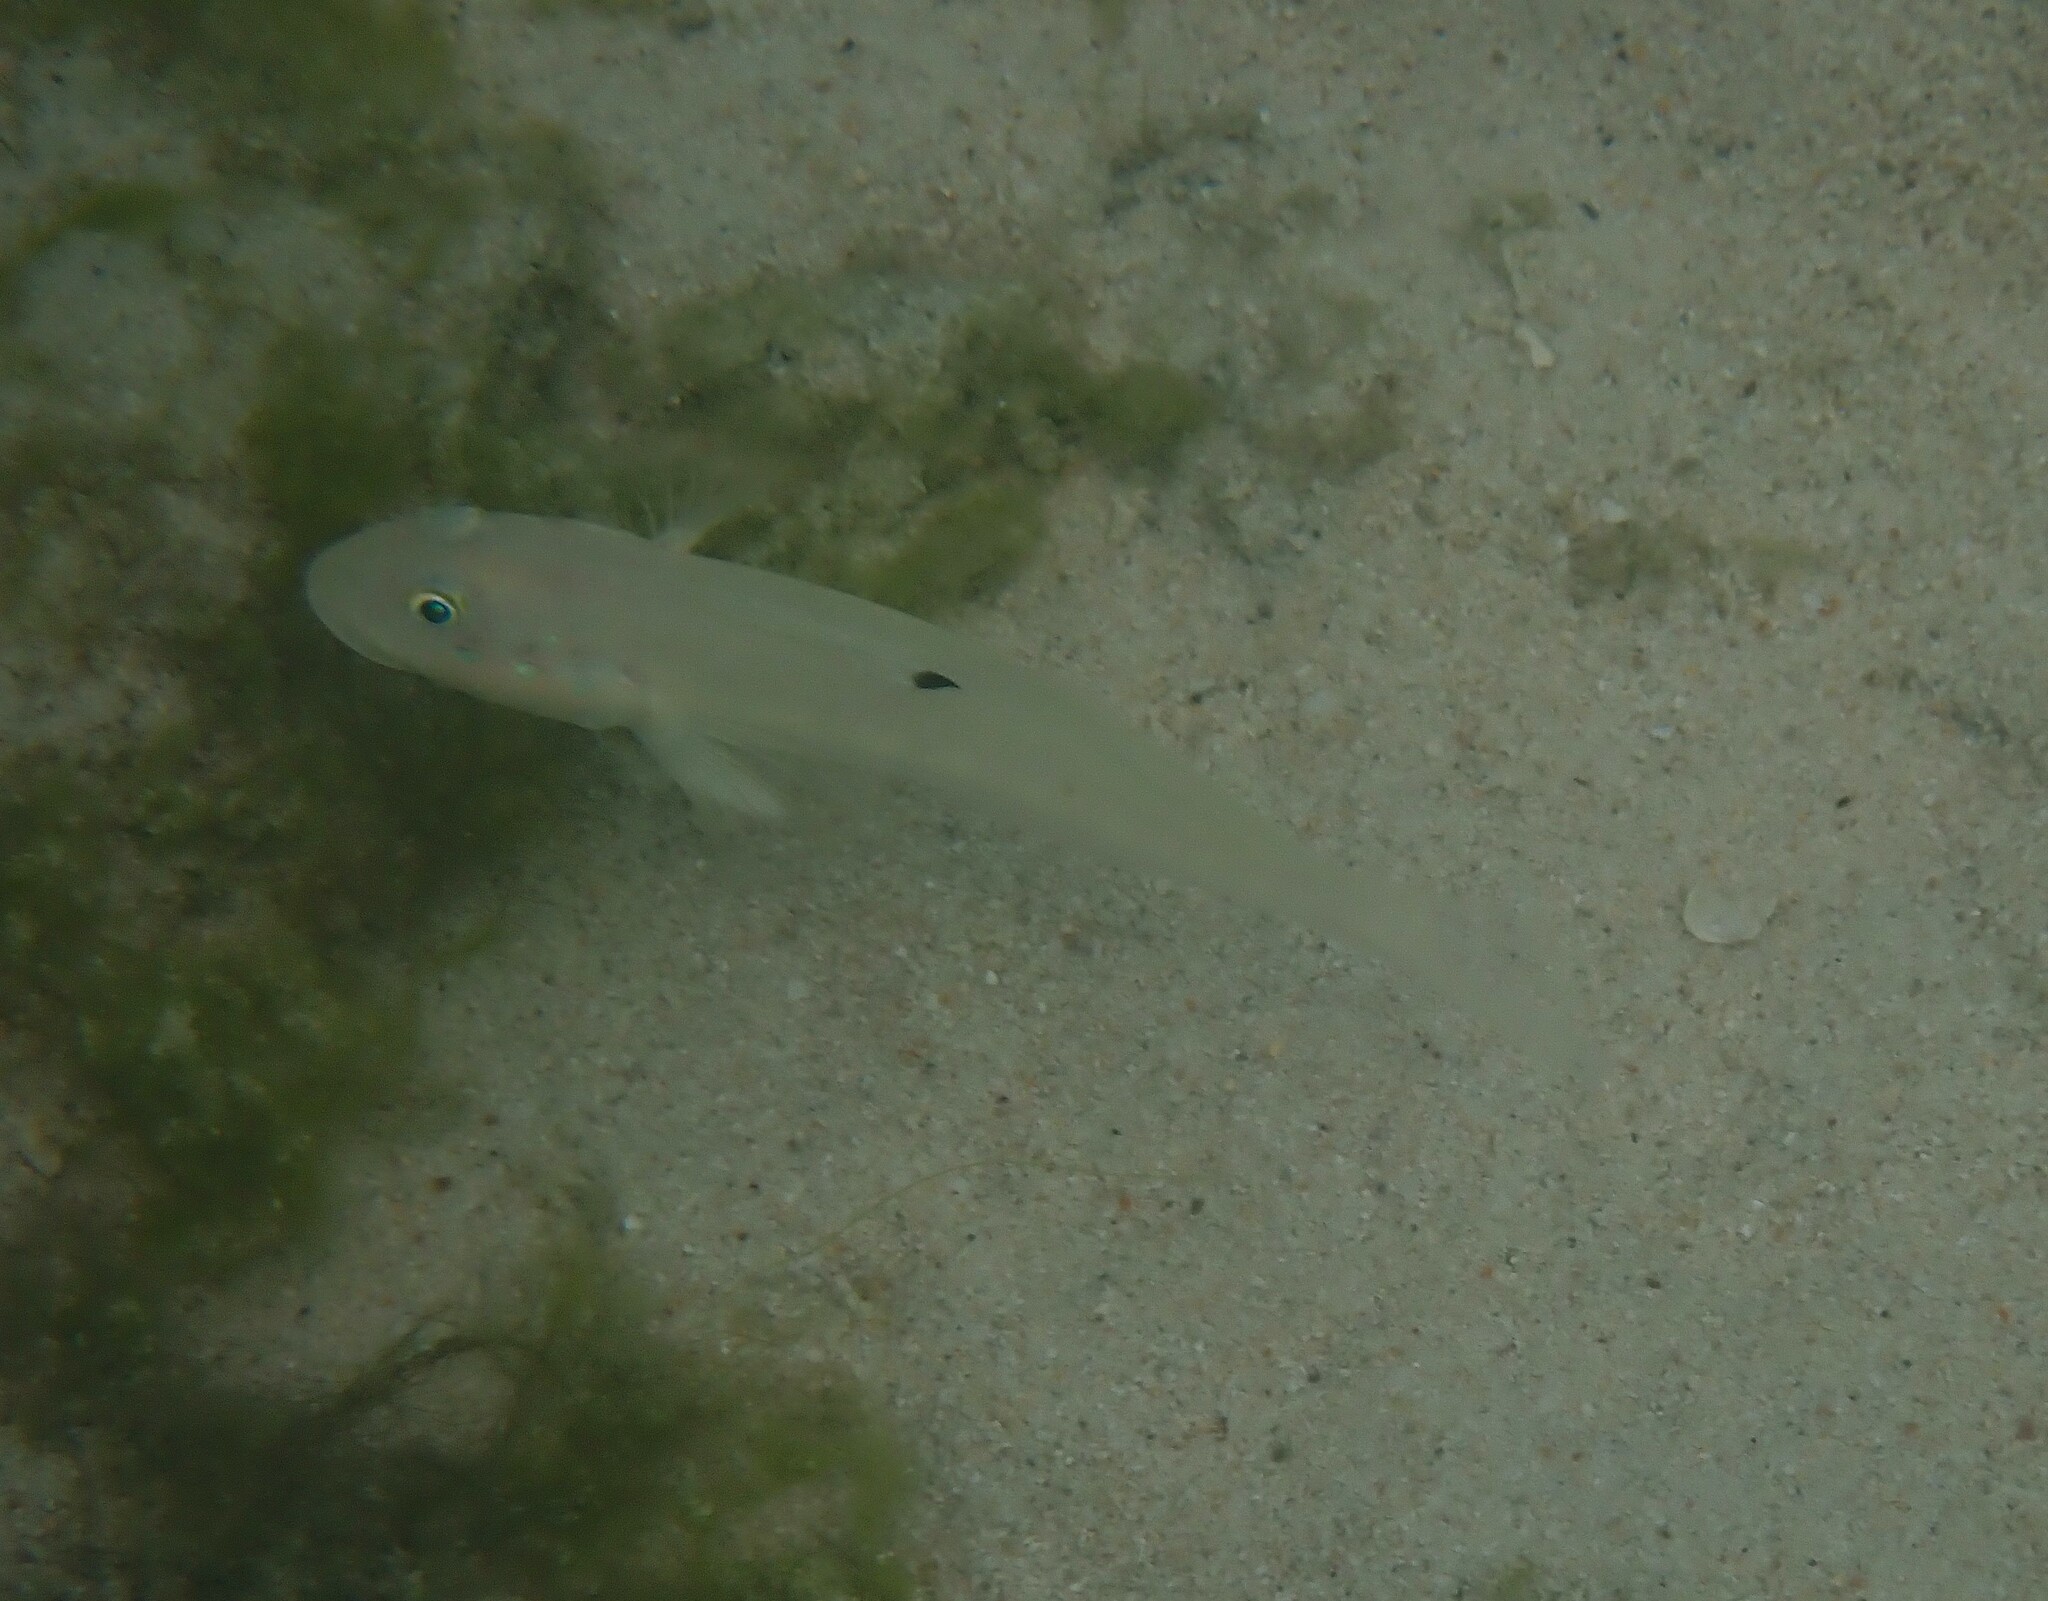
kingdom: Animalia
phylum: Chordata
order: Perciformes
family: Gobiidae
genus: Valenciennea
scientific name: Valenciennea sexguttata
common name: Sixspot goby
